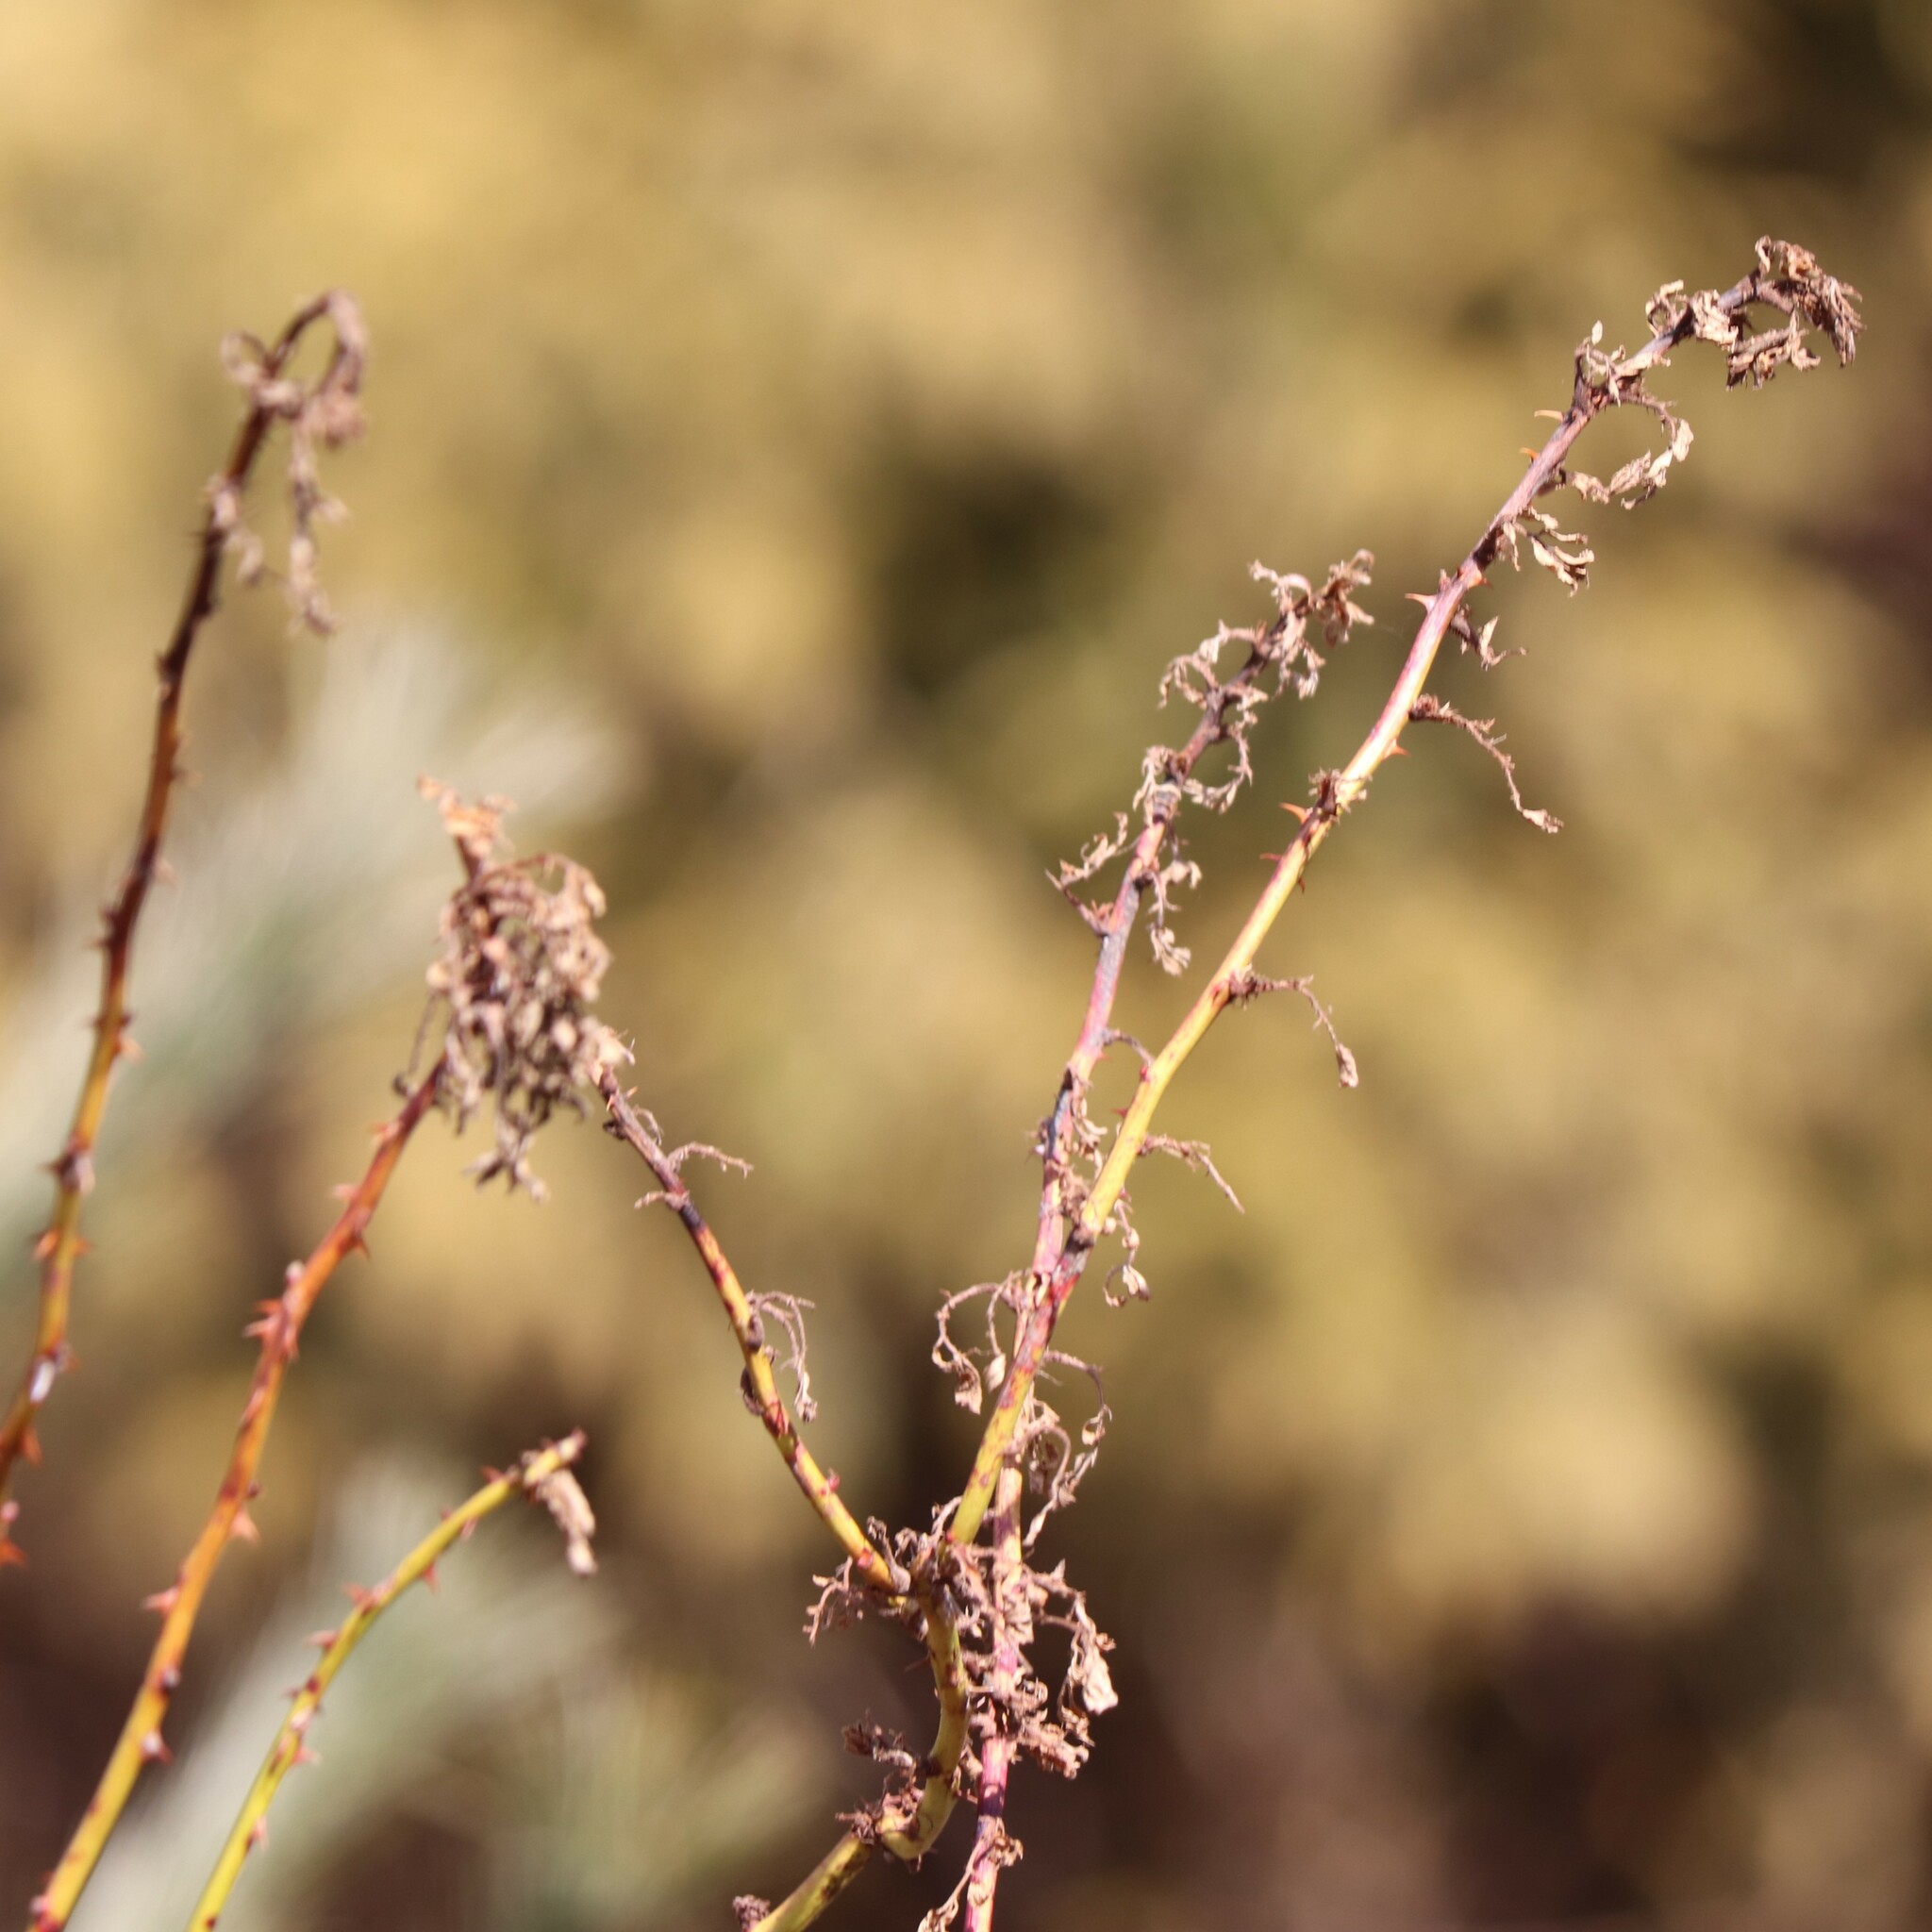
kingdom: Viruses
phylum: Negarnaviricota
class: Ellioviricetes
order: Bunyavirales
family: Fimoviridae
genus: Emaravirus
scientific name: Emaravirus rosae
